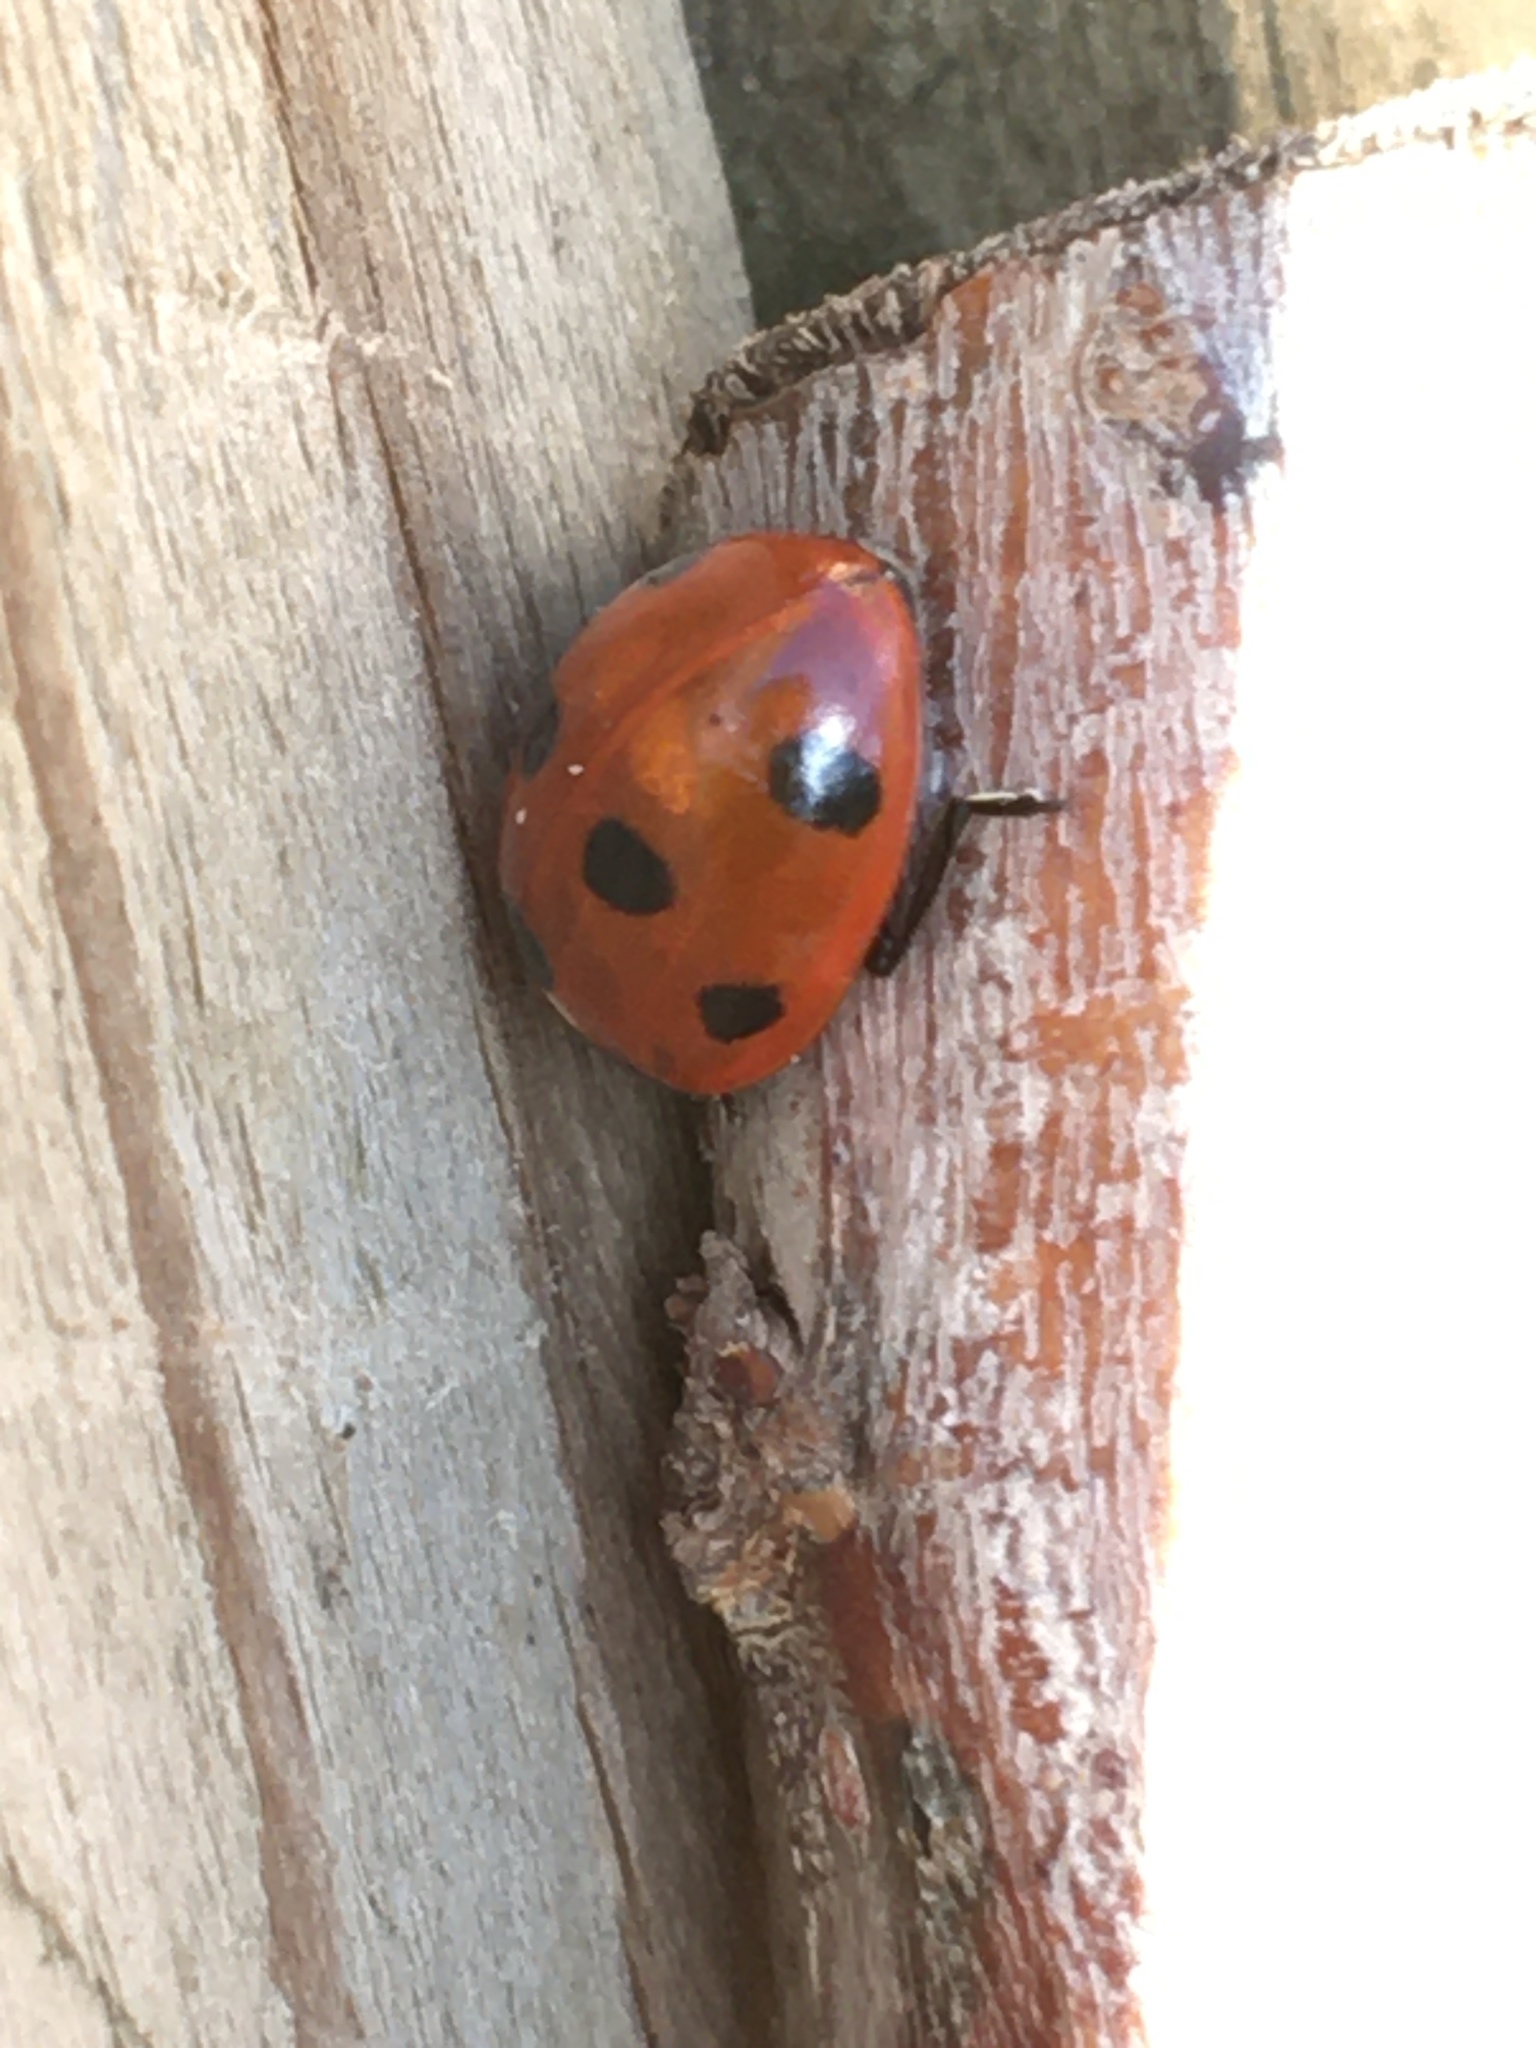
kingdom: Animalia
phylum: Arthropoda
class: Insecta
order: Coleoptera
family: Coccinellidae
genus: Coccinella
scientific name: Coccinella septempunctata
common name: Sevenspotted lady beetle
